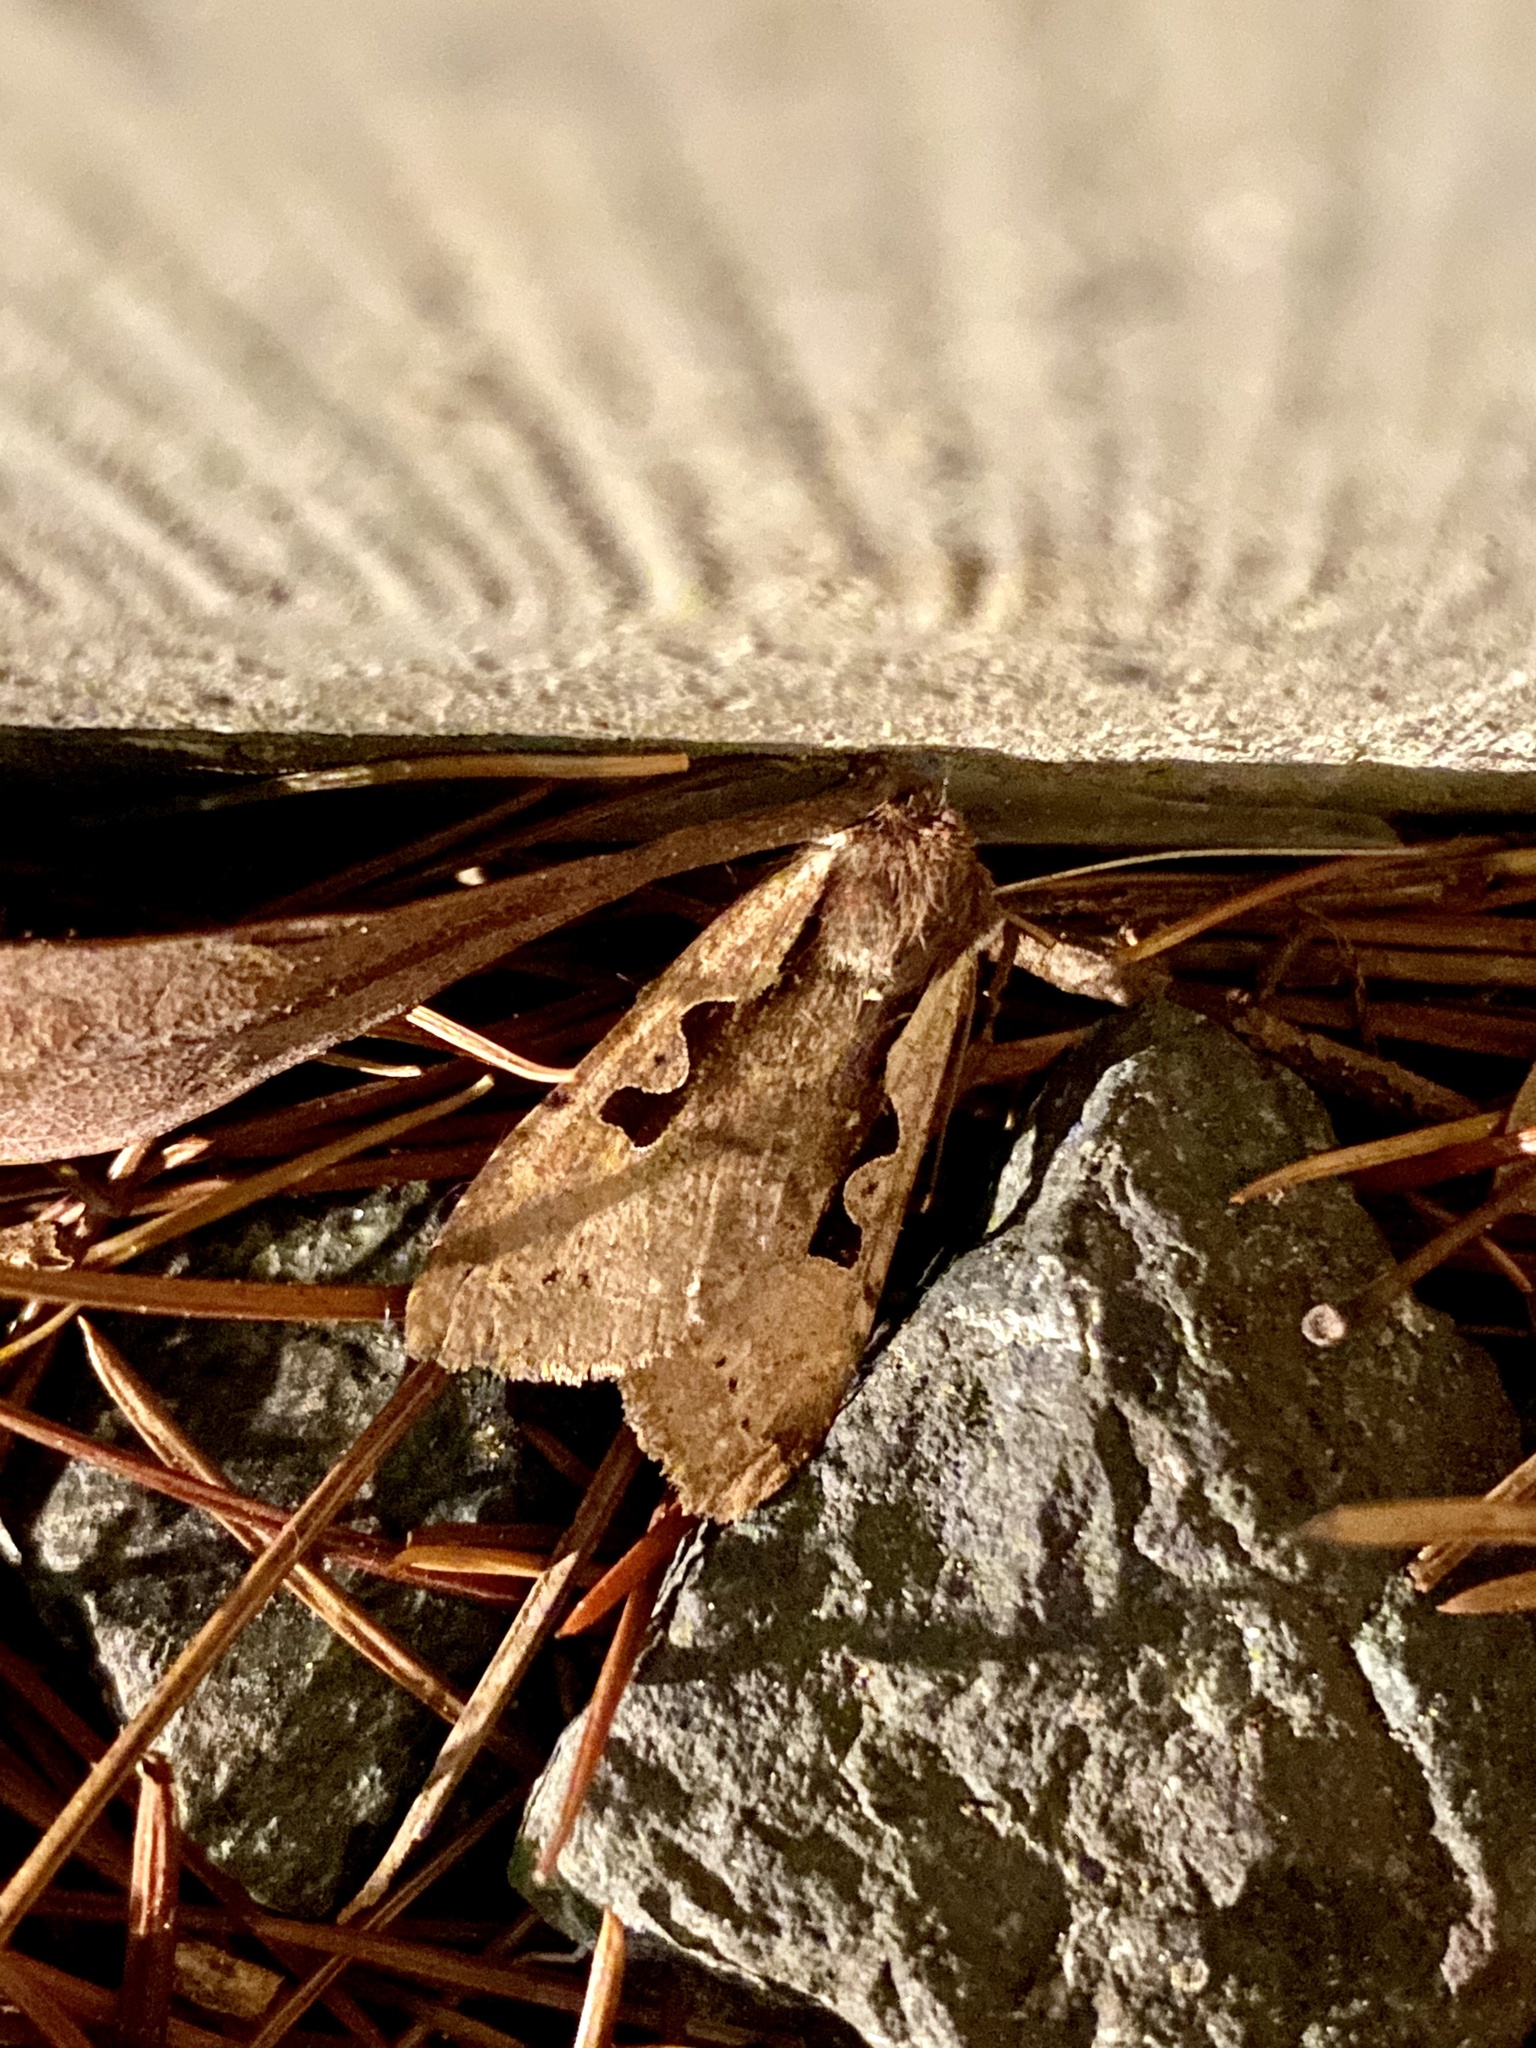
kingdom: Animalia
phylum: Arthropoda
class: Insecta
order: Lepidoptera
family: Noctuidae
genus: Sugitania
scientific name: Sugitania
